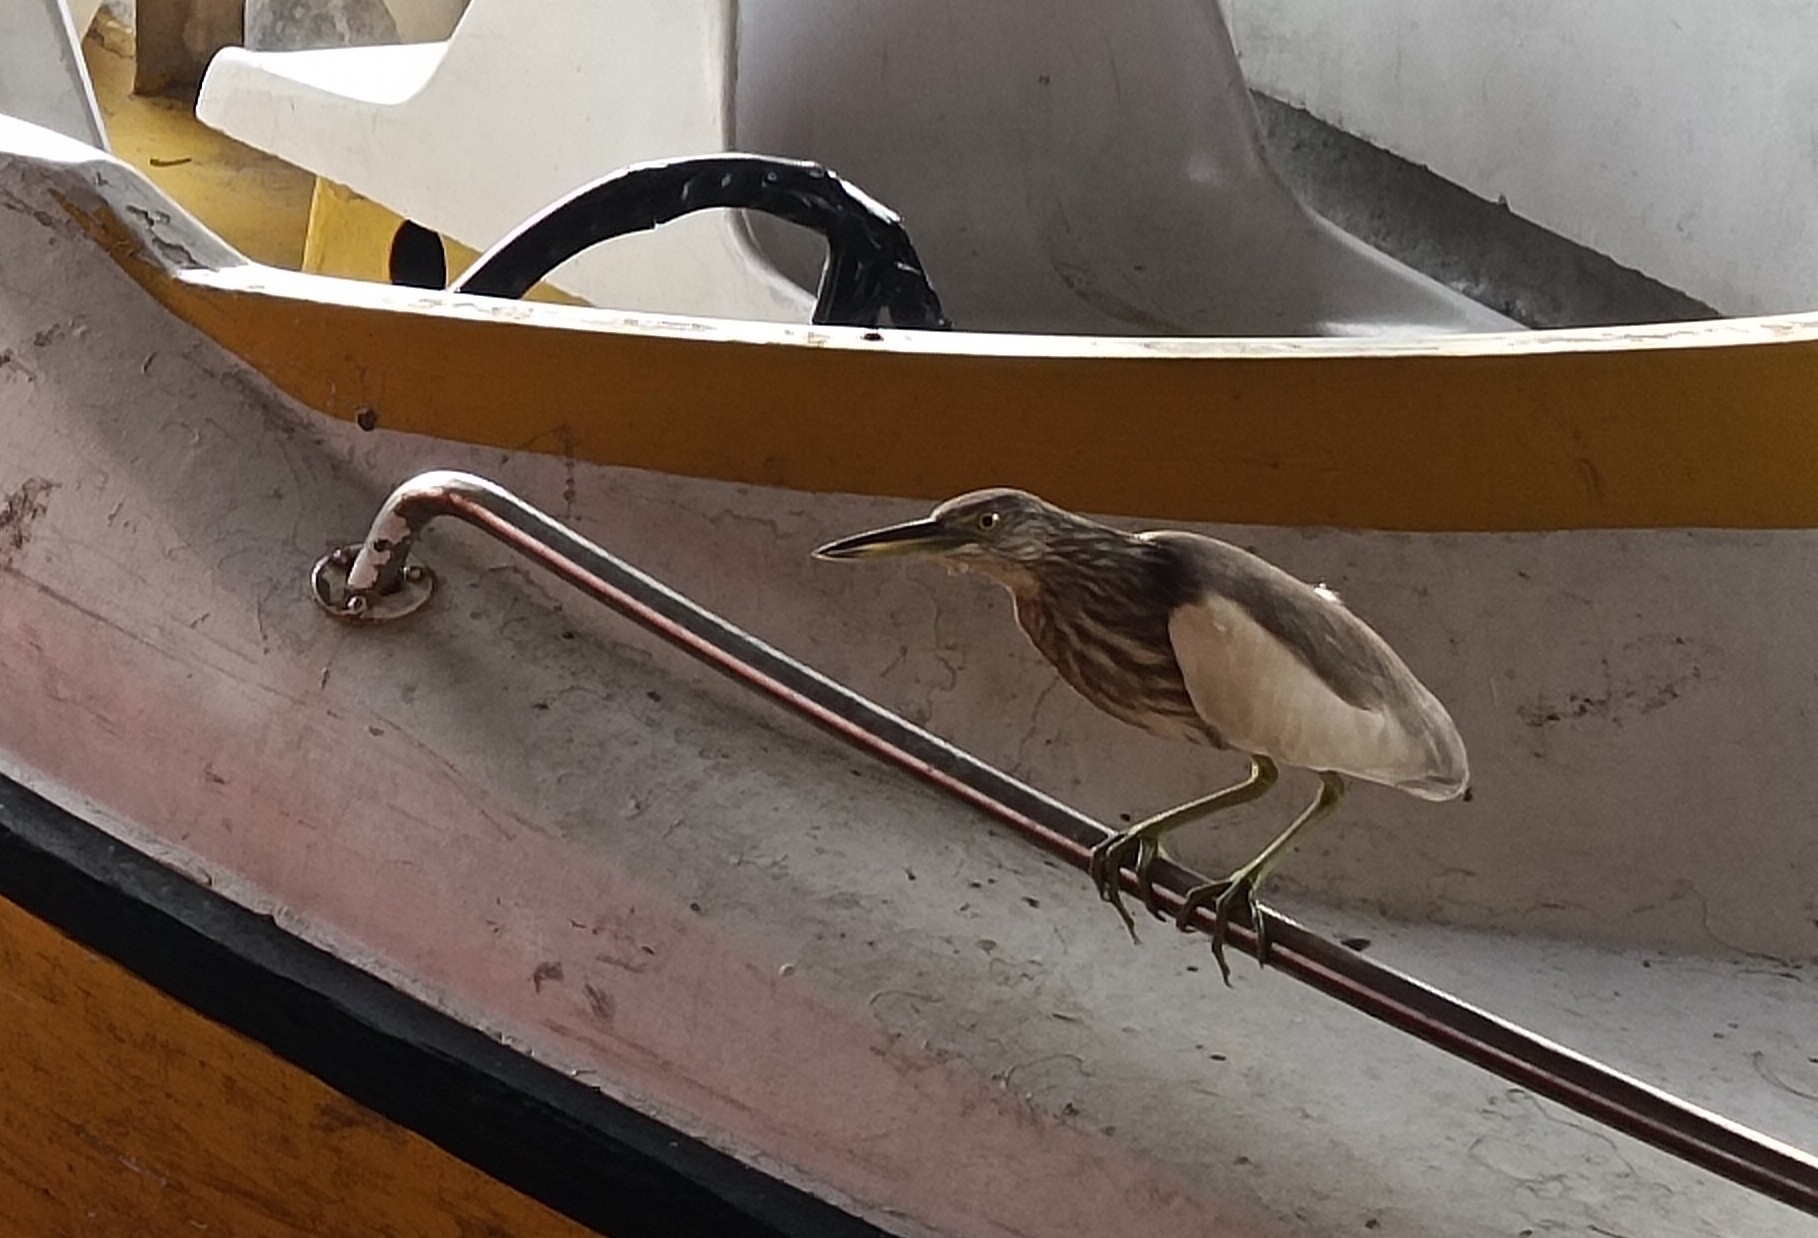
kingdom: Animalia
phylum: Chordata
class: Aves
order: Pelecaniformes
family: Ardeidae
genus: Ardeola
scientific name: Ardeola grayii
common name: Indian pond heron
